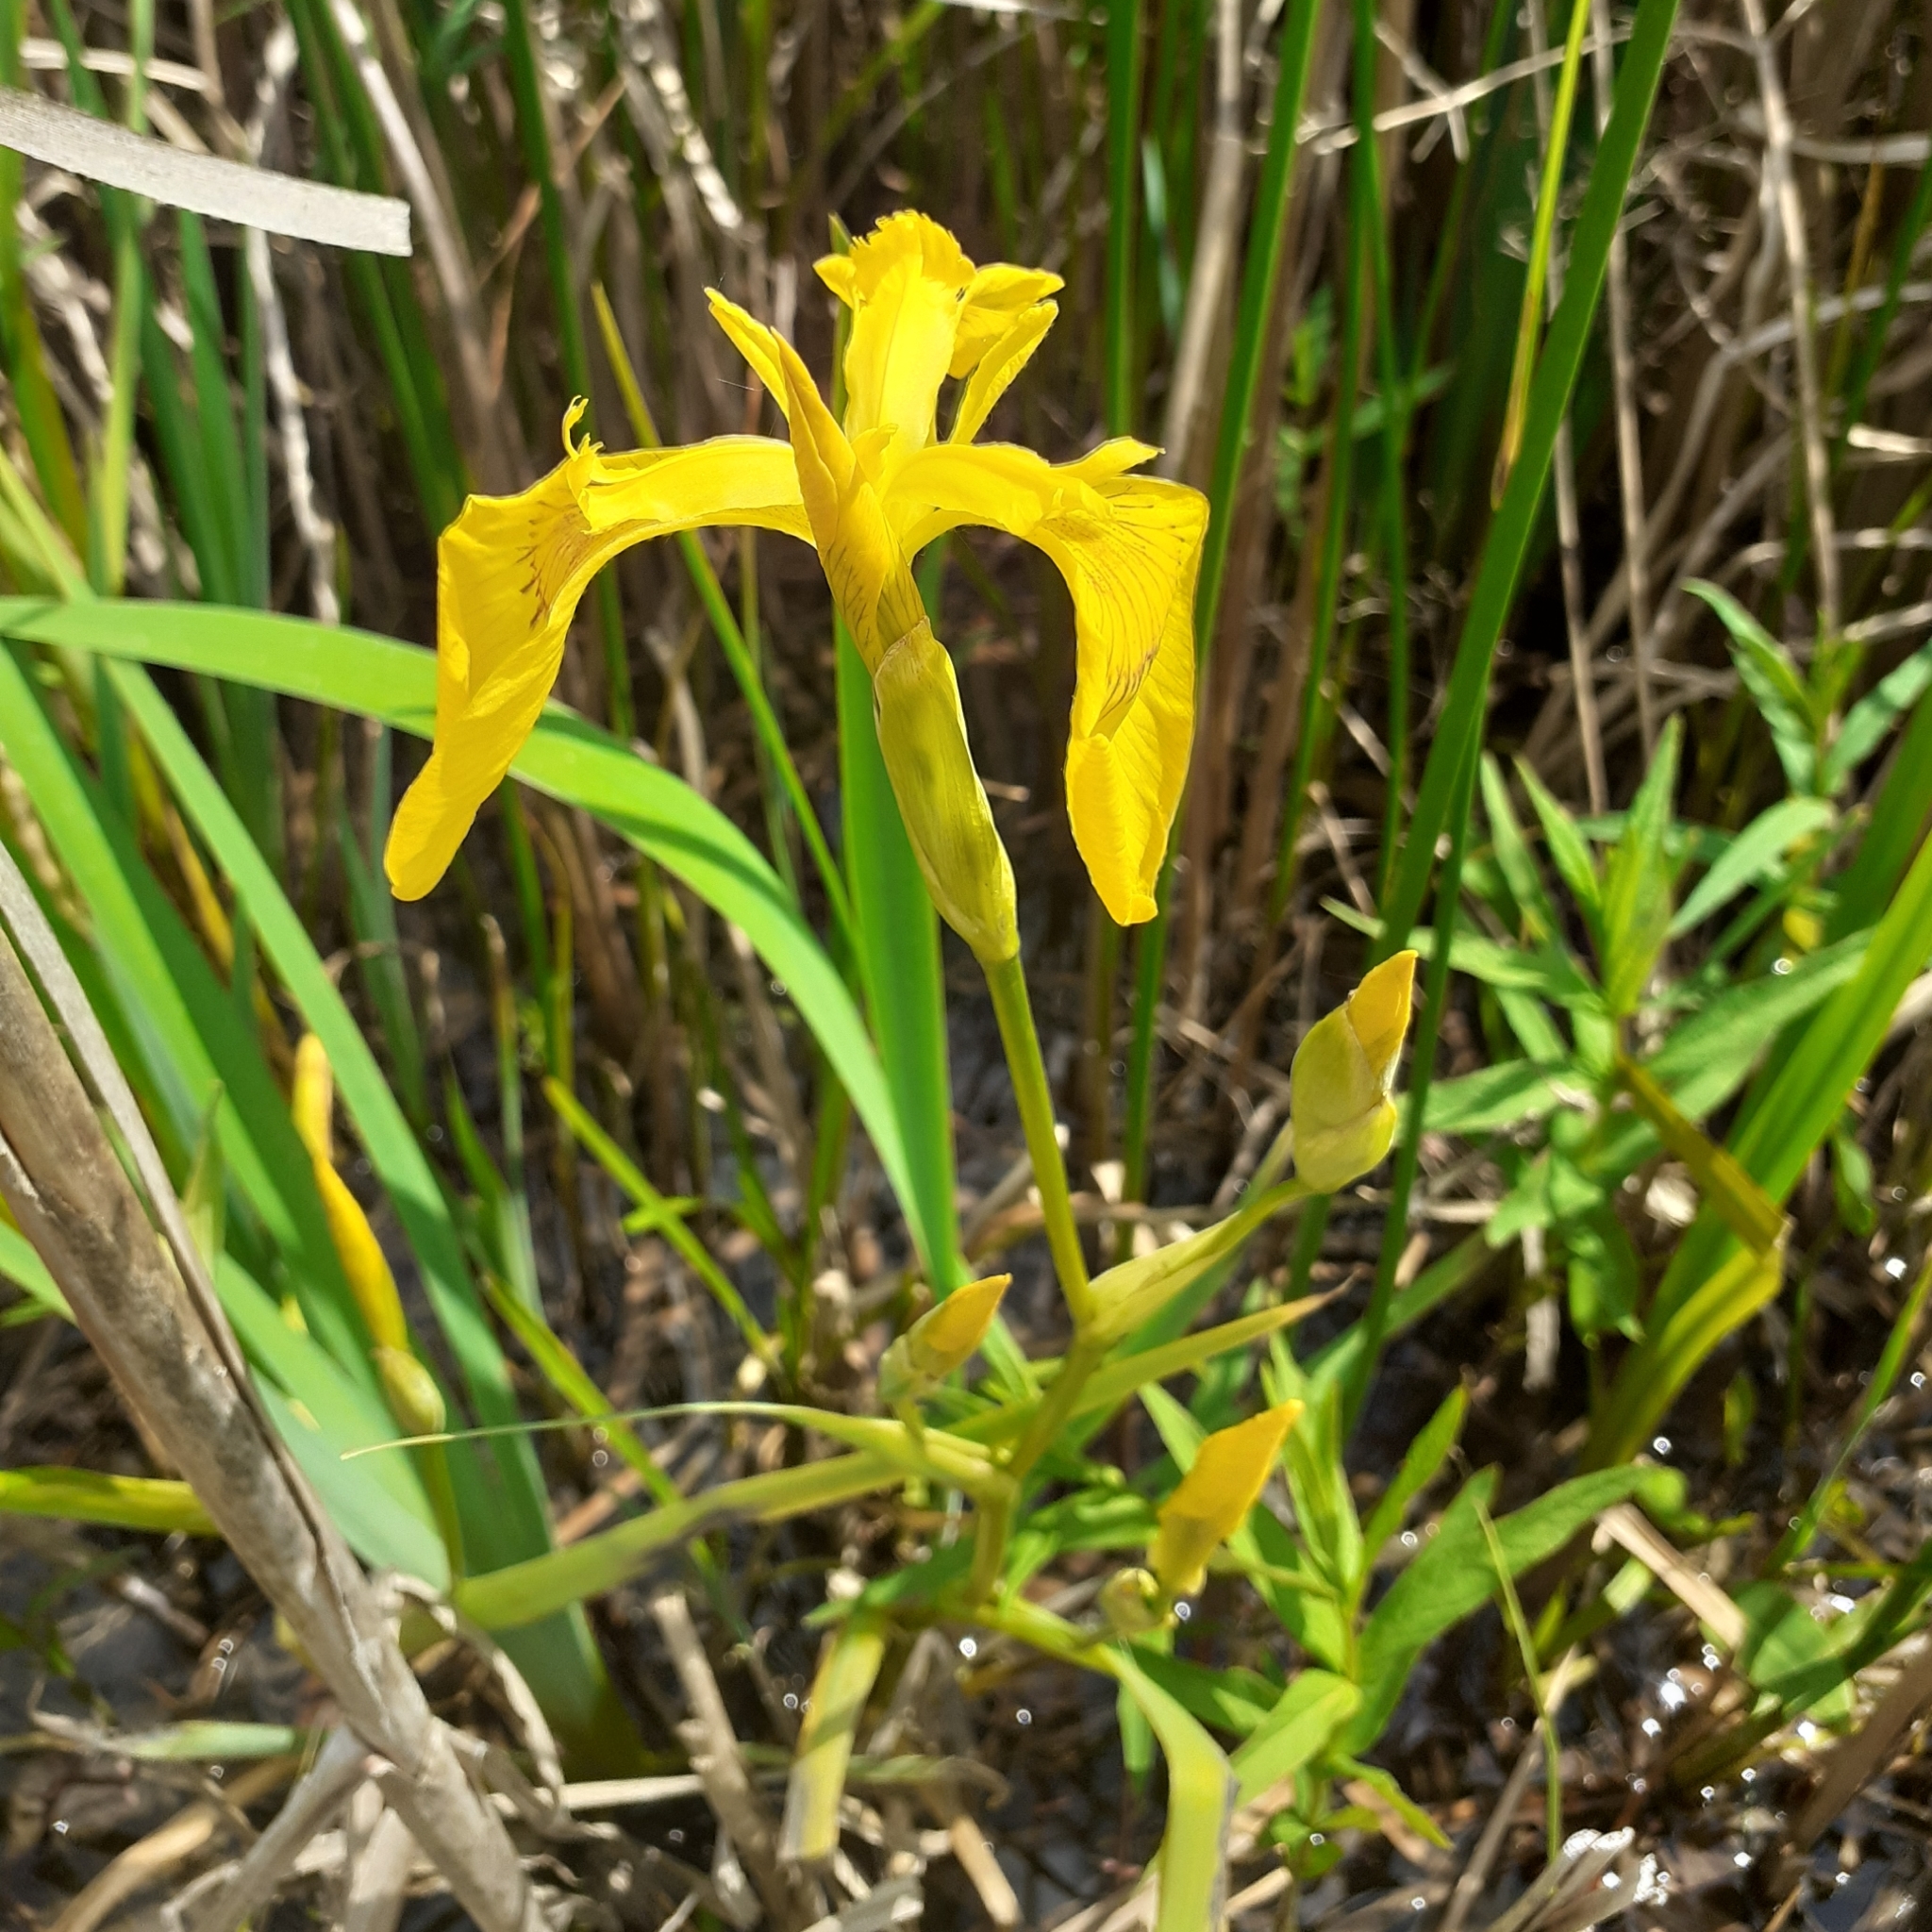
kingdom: Plantae
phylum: Tracheophyta
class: Liliopsida
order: Asparagales
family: Iridaceae
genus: Iris
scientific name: Iris pseudacorus
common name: Yellow flag
